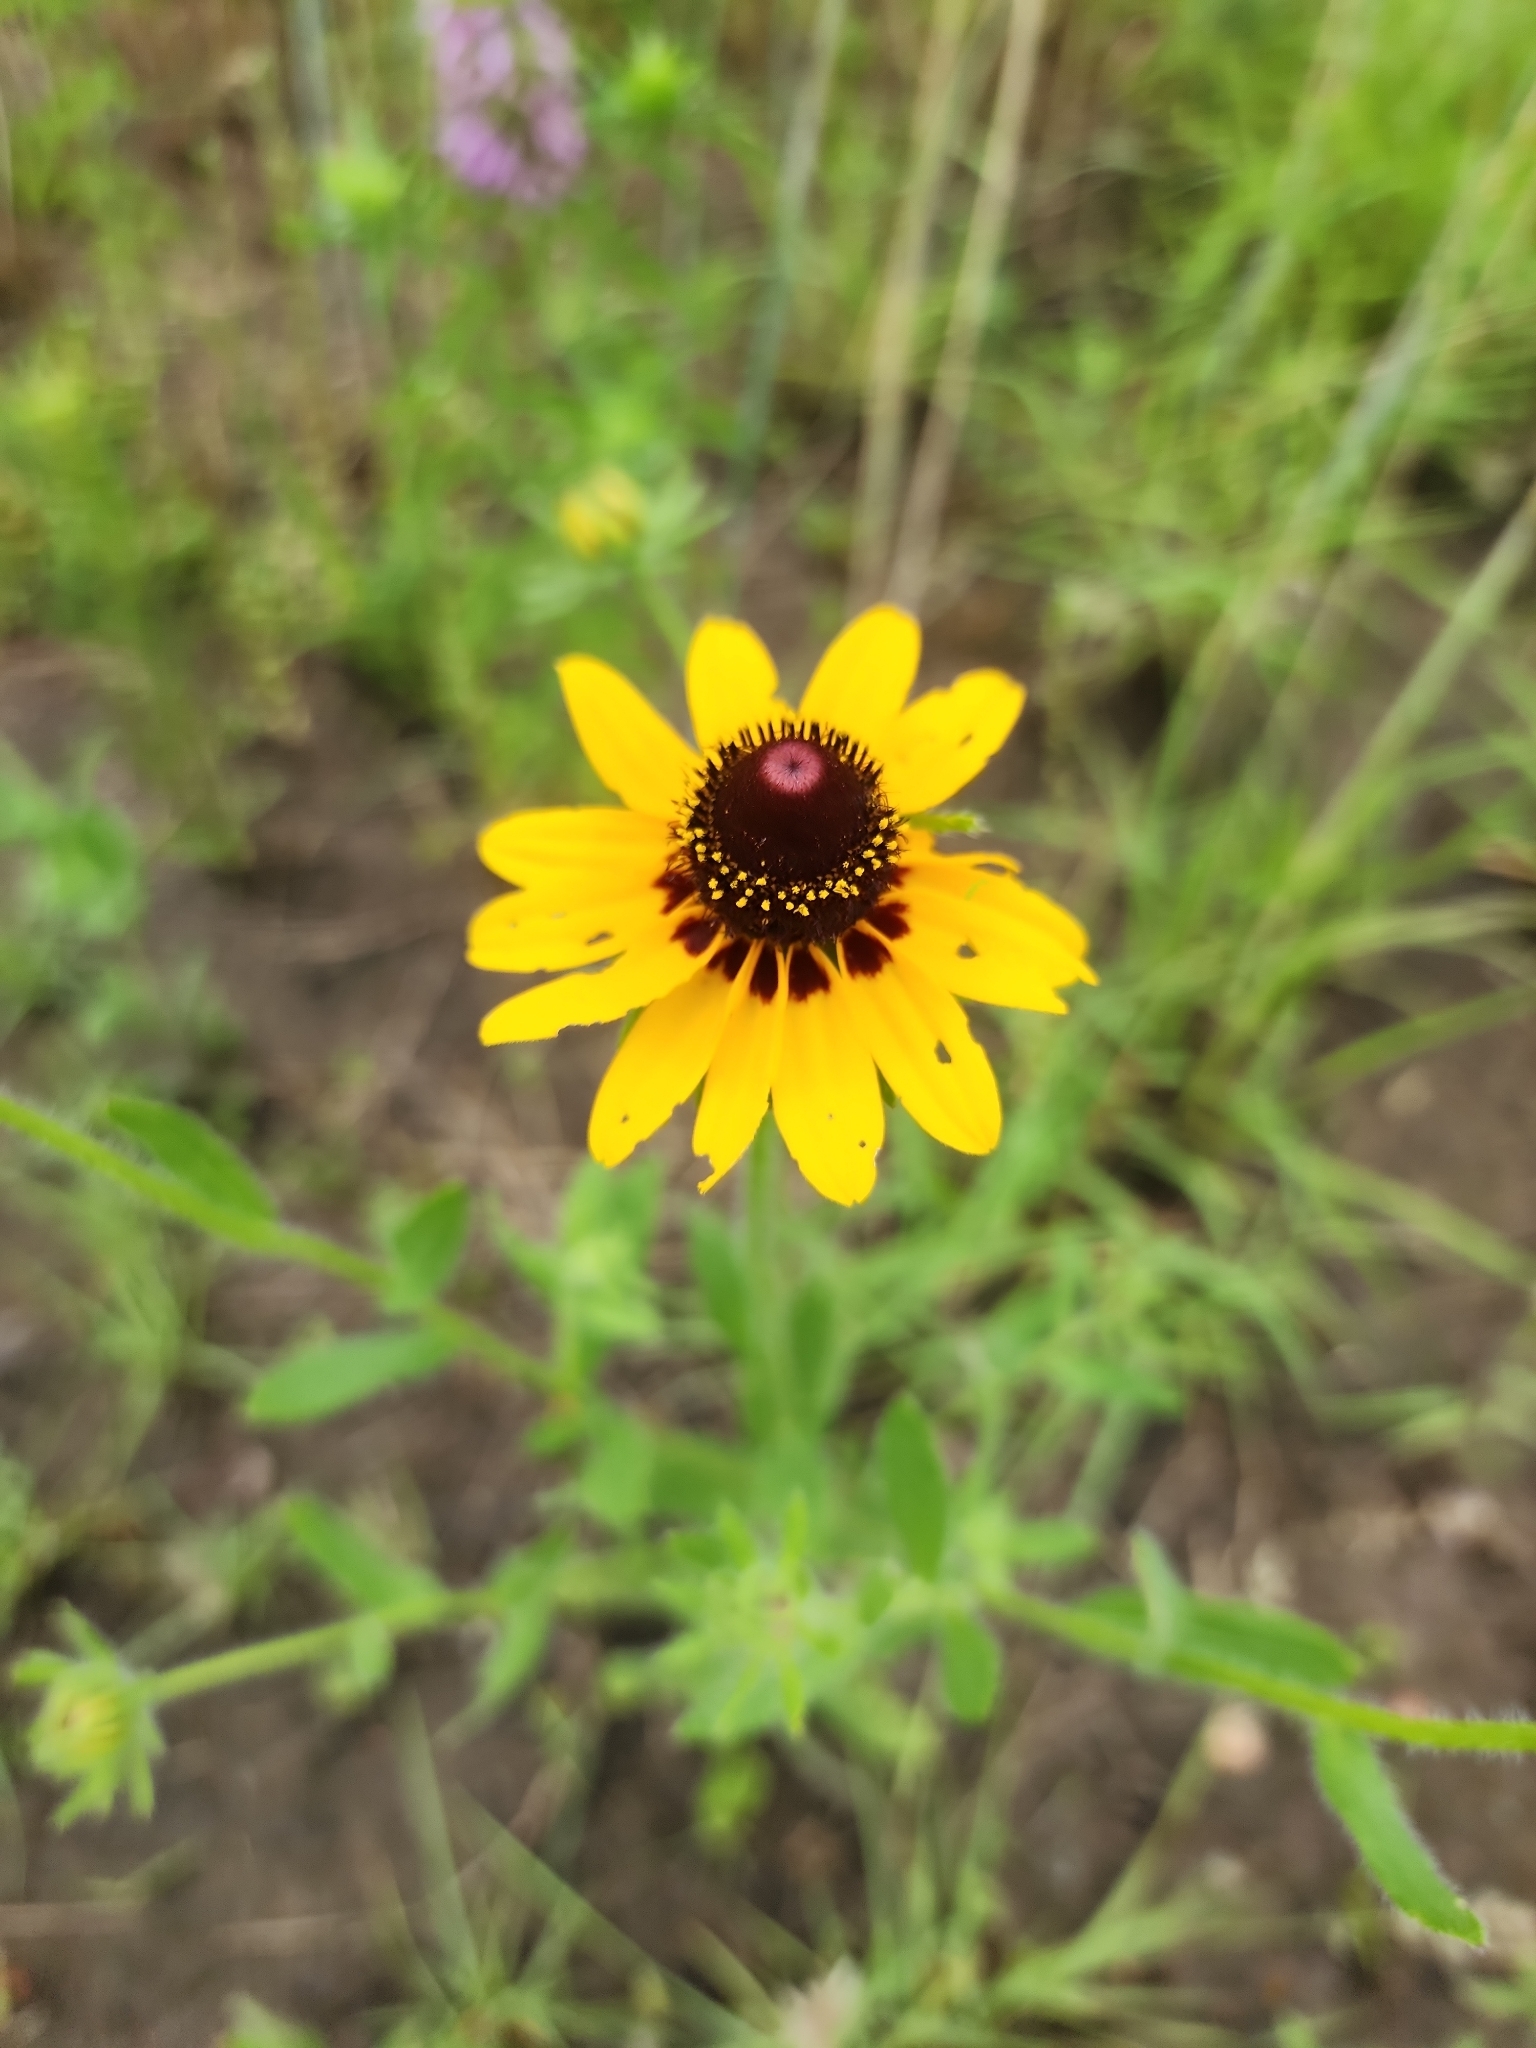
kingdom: Plantae
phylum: Tracheophyta
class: Magnoliopsida
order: Asterales
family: Asteraceae
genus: Rudbeckia
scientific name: Rudbeckia hirta
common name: Black-eyed-susan
